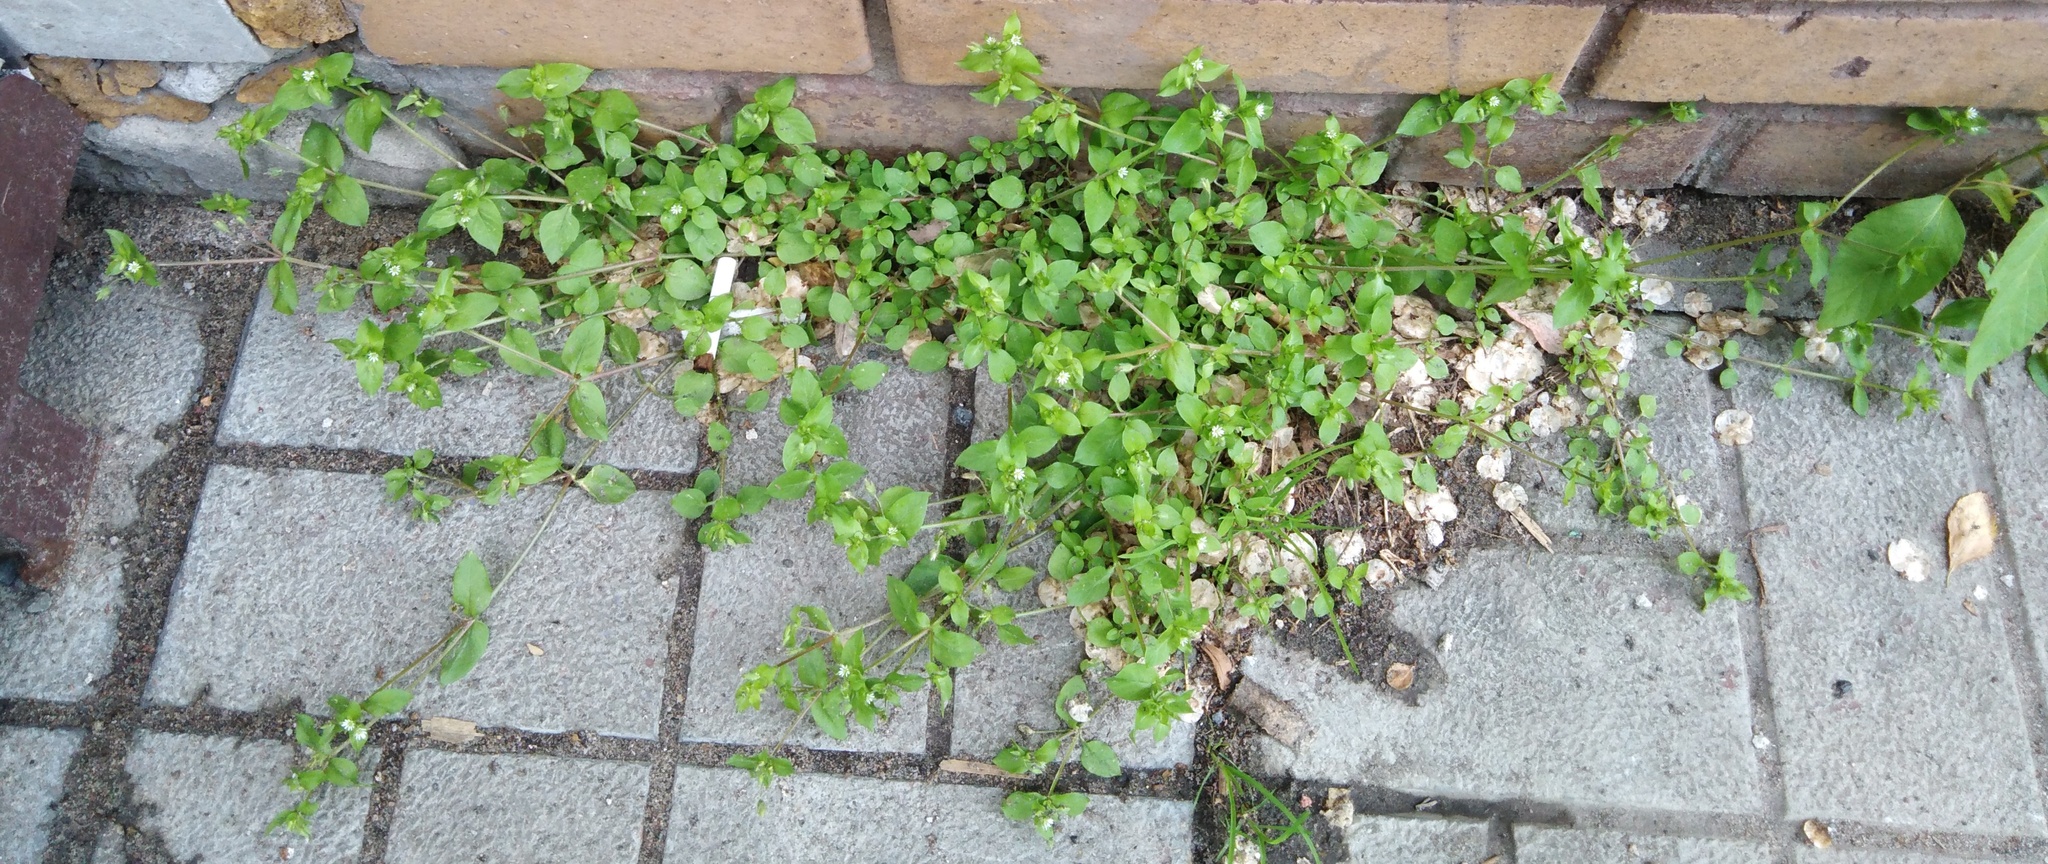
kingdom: Plantae
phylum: Tracheophyta
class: Magnoliopsida
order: Caryophyllales
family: Caryophyllaceae
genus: Stellaria
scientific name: Stellaria media
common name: Common chickweed
